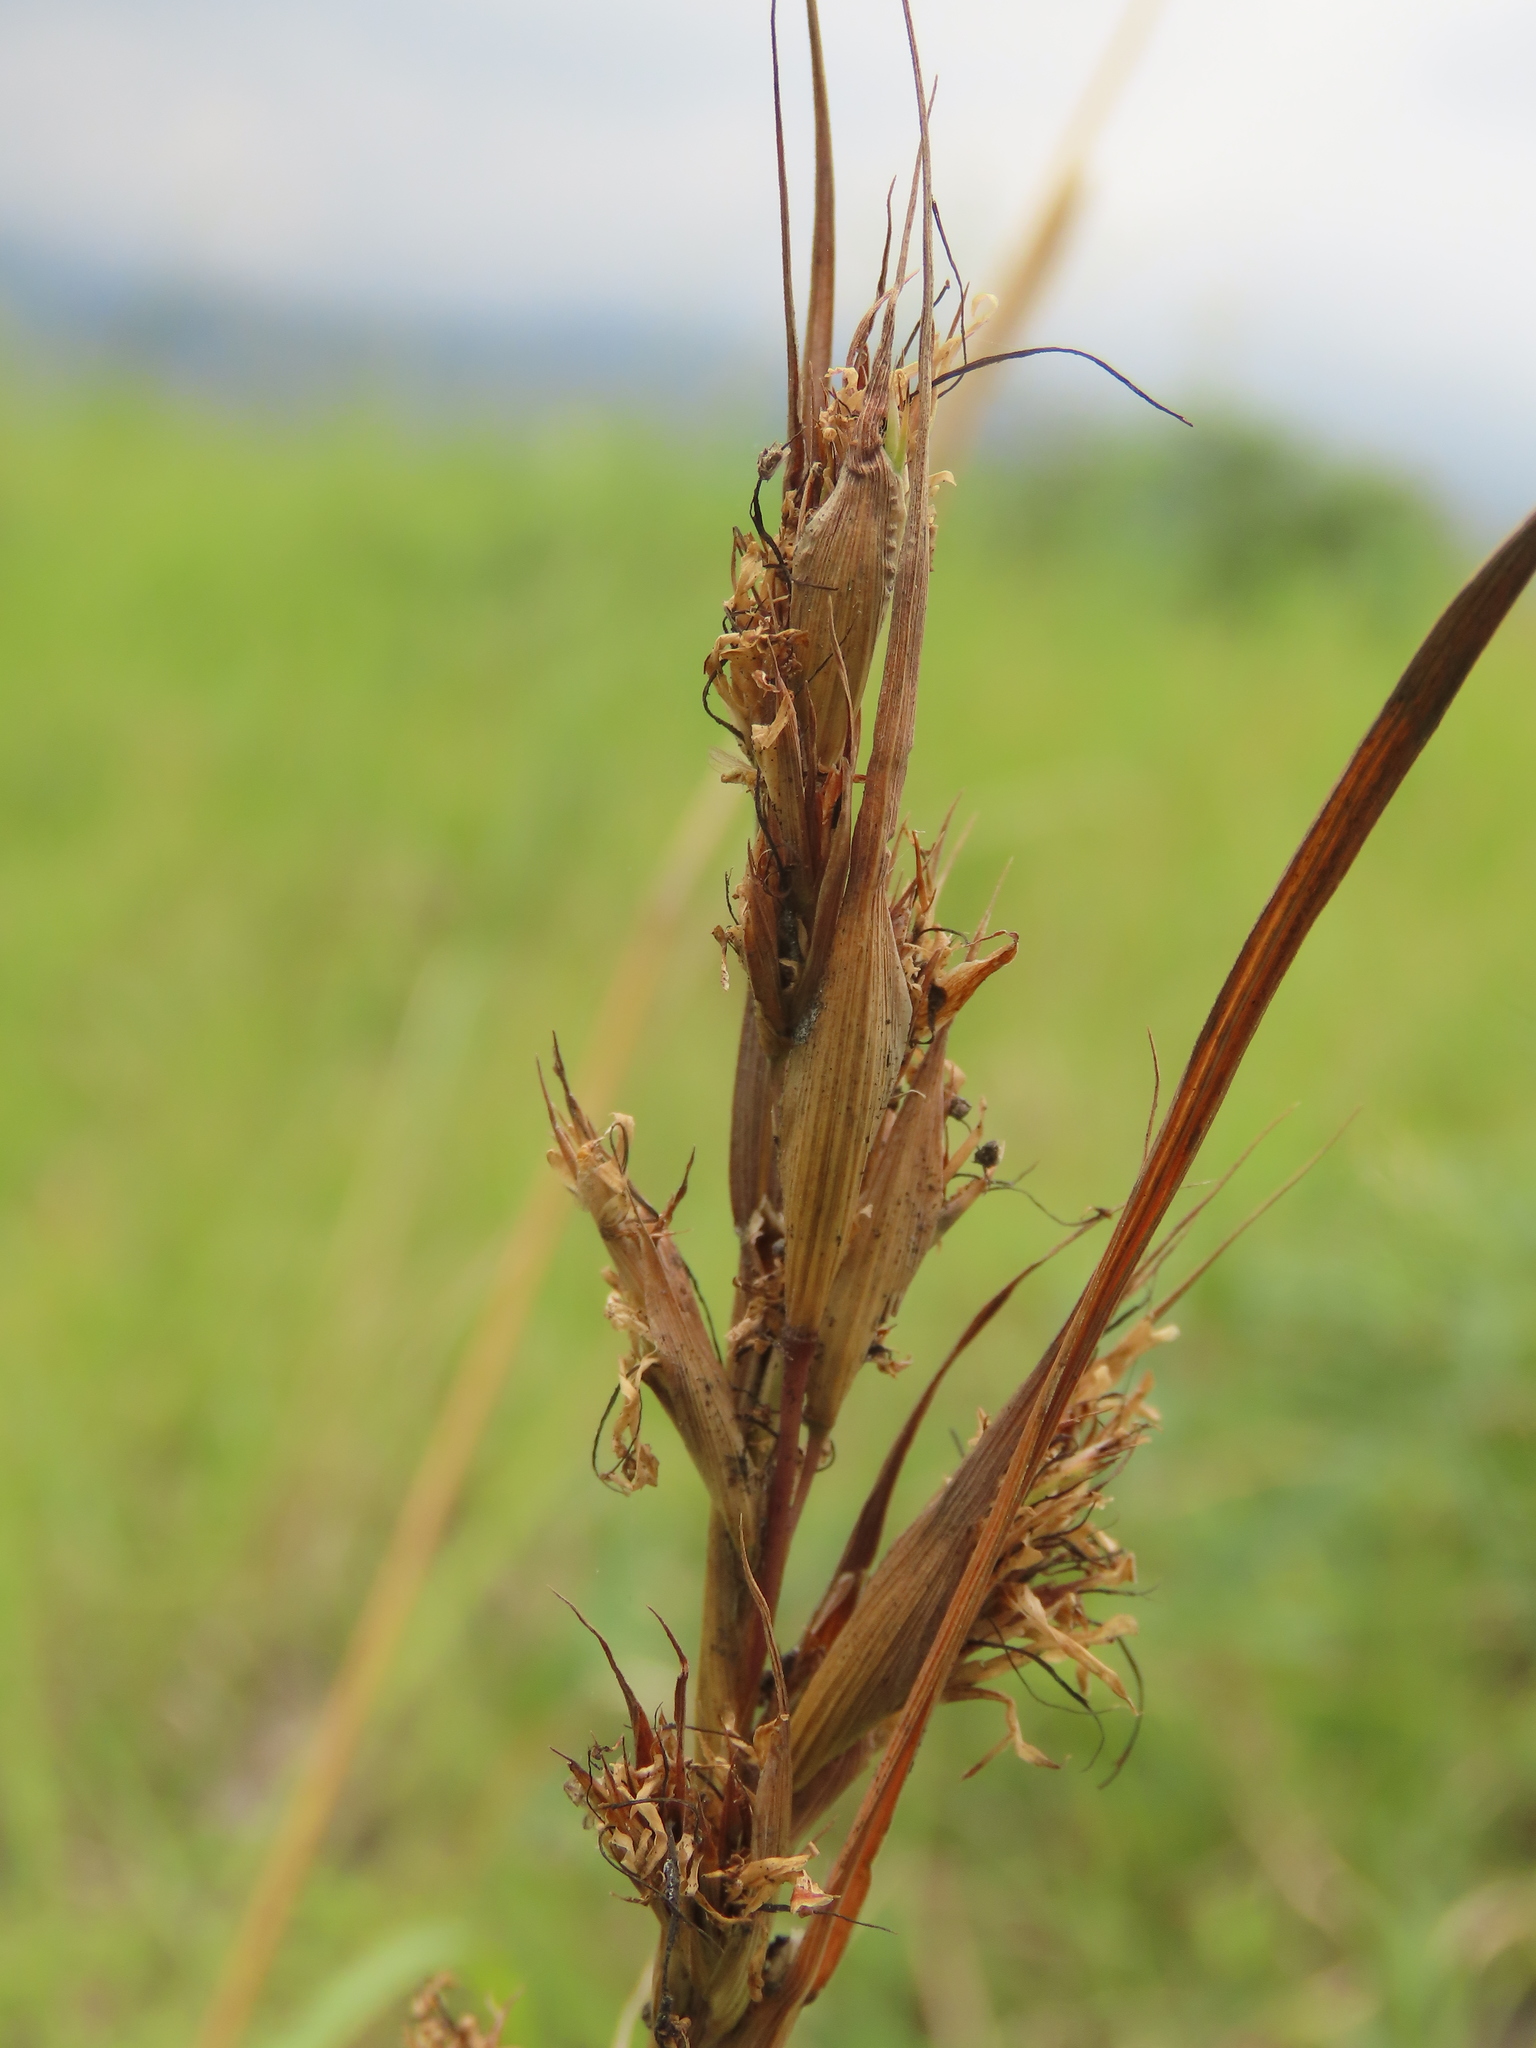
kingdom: Plantae
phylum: Tracheophyta
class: Liliopsida
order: Poales
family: Poaceae
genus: Cymbopogon
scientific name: Cymbopogon tortilis
